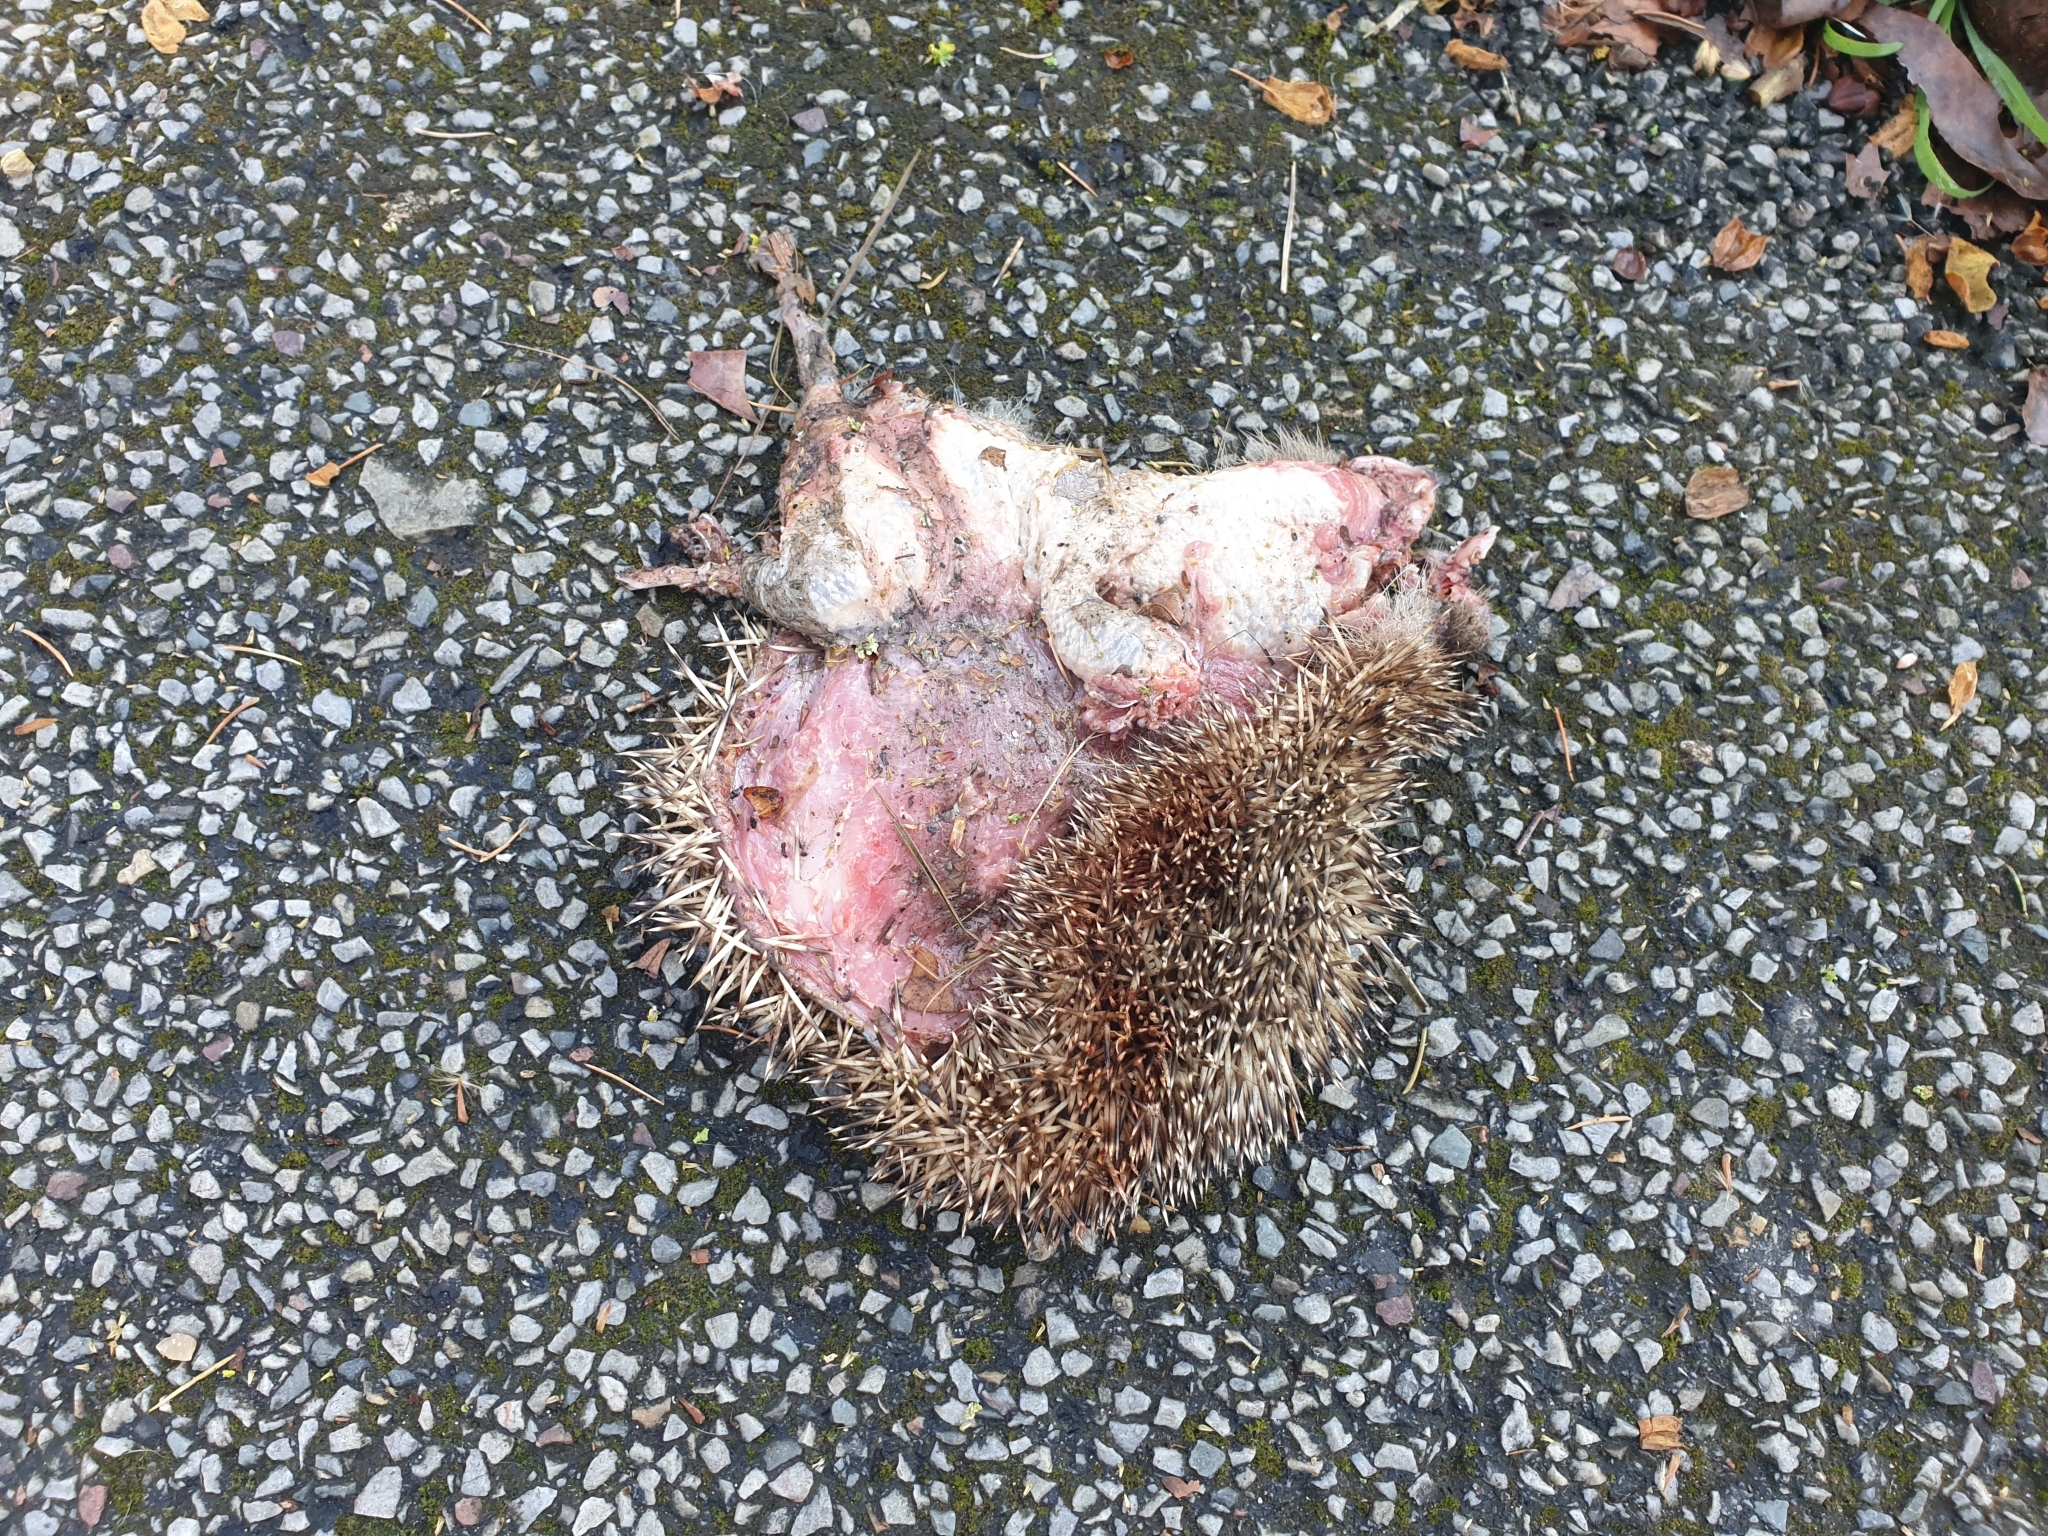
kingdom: Animalia
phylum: Chordata
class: Mammalia
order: Erinaceomorpha
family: Erinaceidae
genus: Erinaceus
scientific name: Erinaceus europaeus
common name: West european hedgehog
